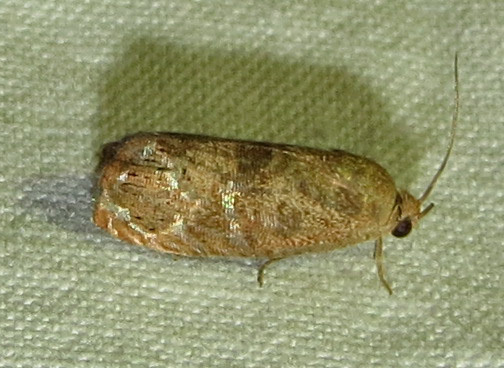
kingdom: Animalia
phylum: Arthropoda
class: Insecta
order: Lepidoptera
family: Tortricidae
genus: Cydia
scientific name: Cydia latiferreana
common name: Filbertworm moth
